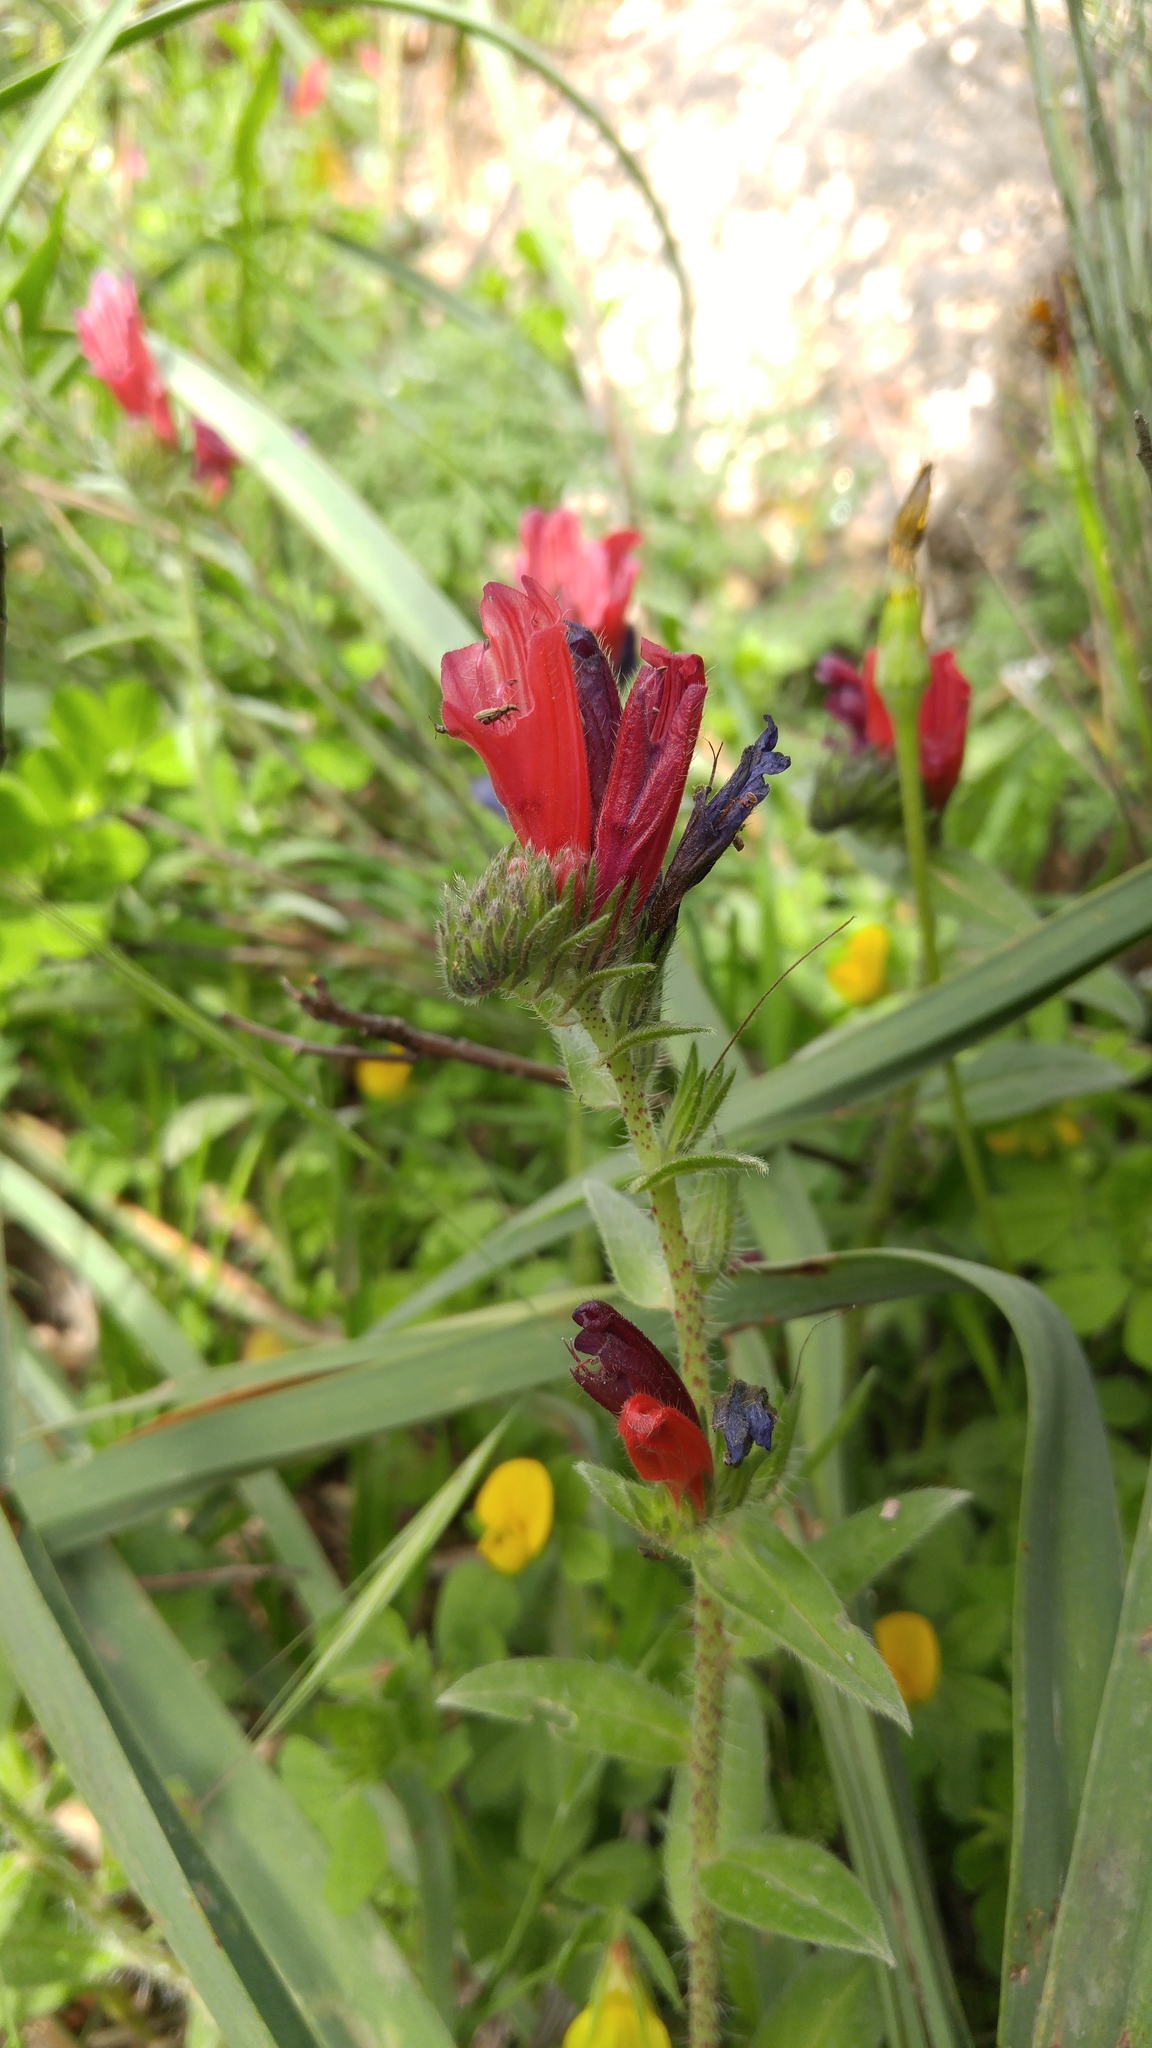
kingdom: Plantae
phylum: Tracheophyta
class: Magnoliopsida
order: Boraginales
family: Boraginaceae
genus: Echium
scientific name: Echium creticum
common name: Cretan viper's bugloss
